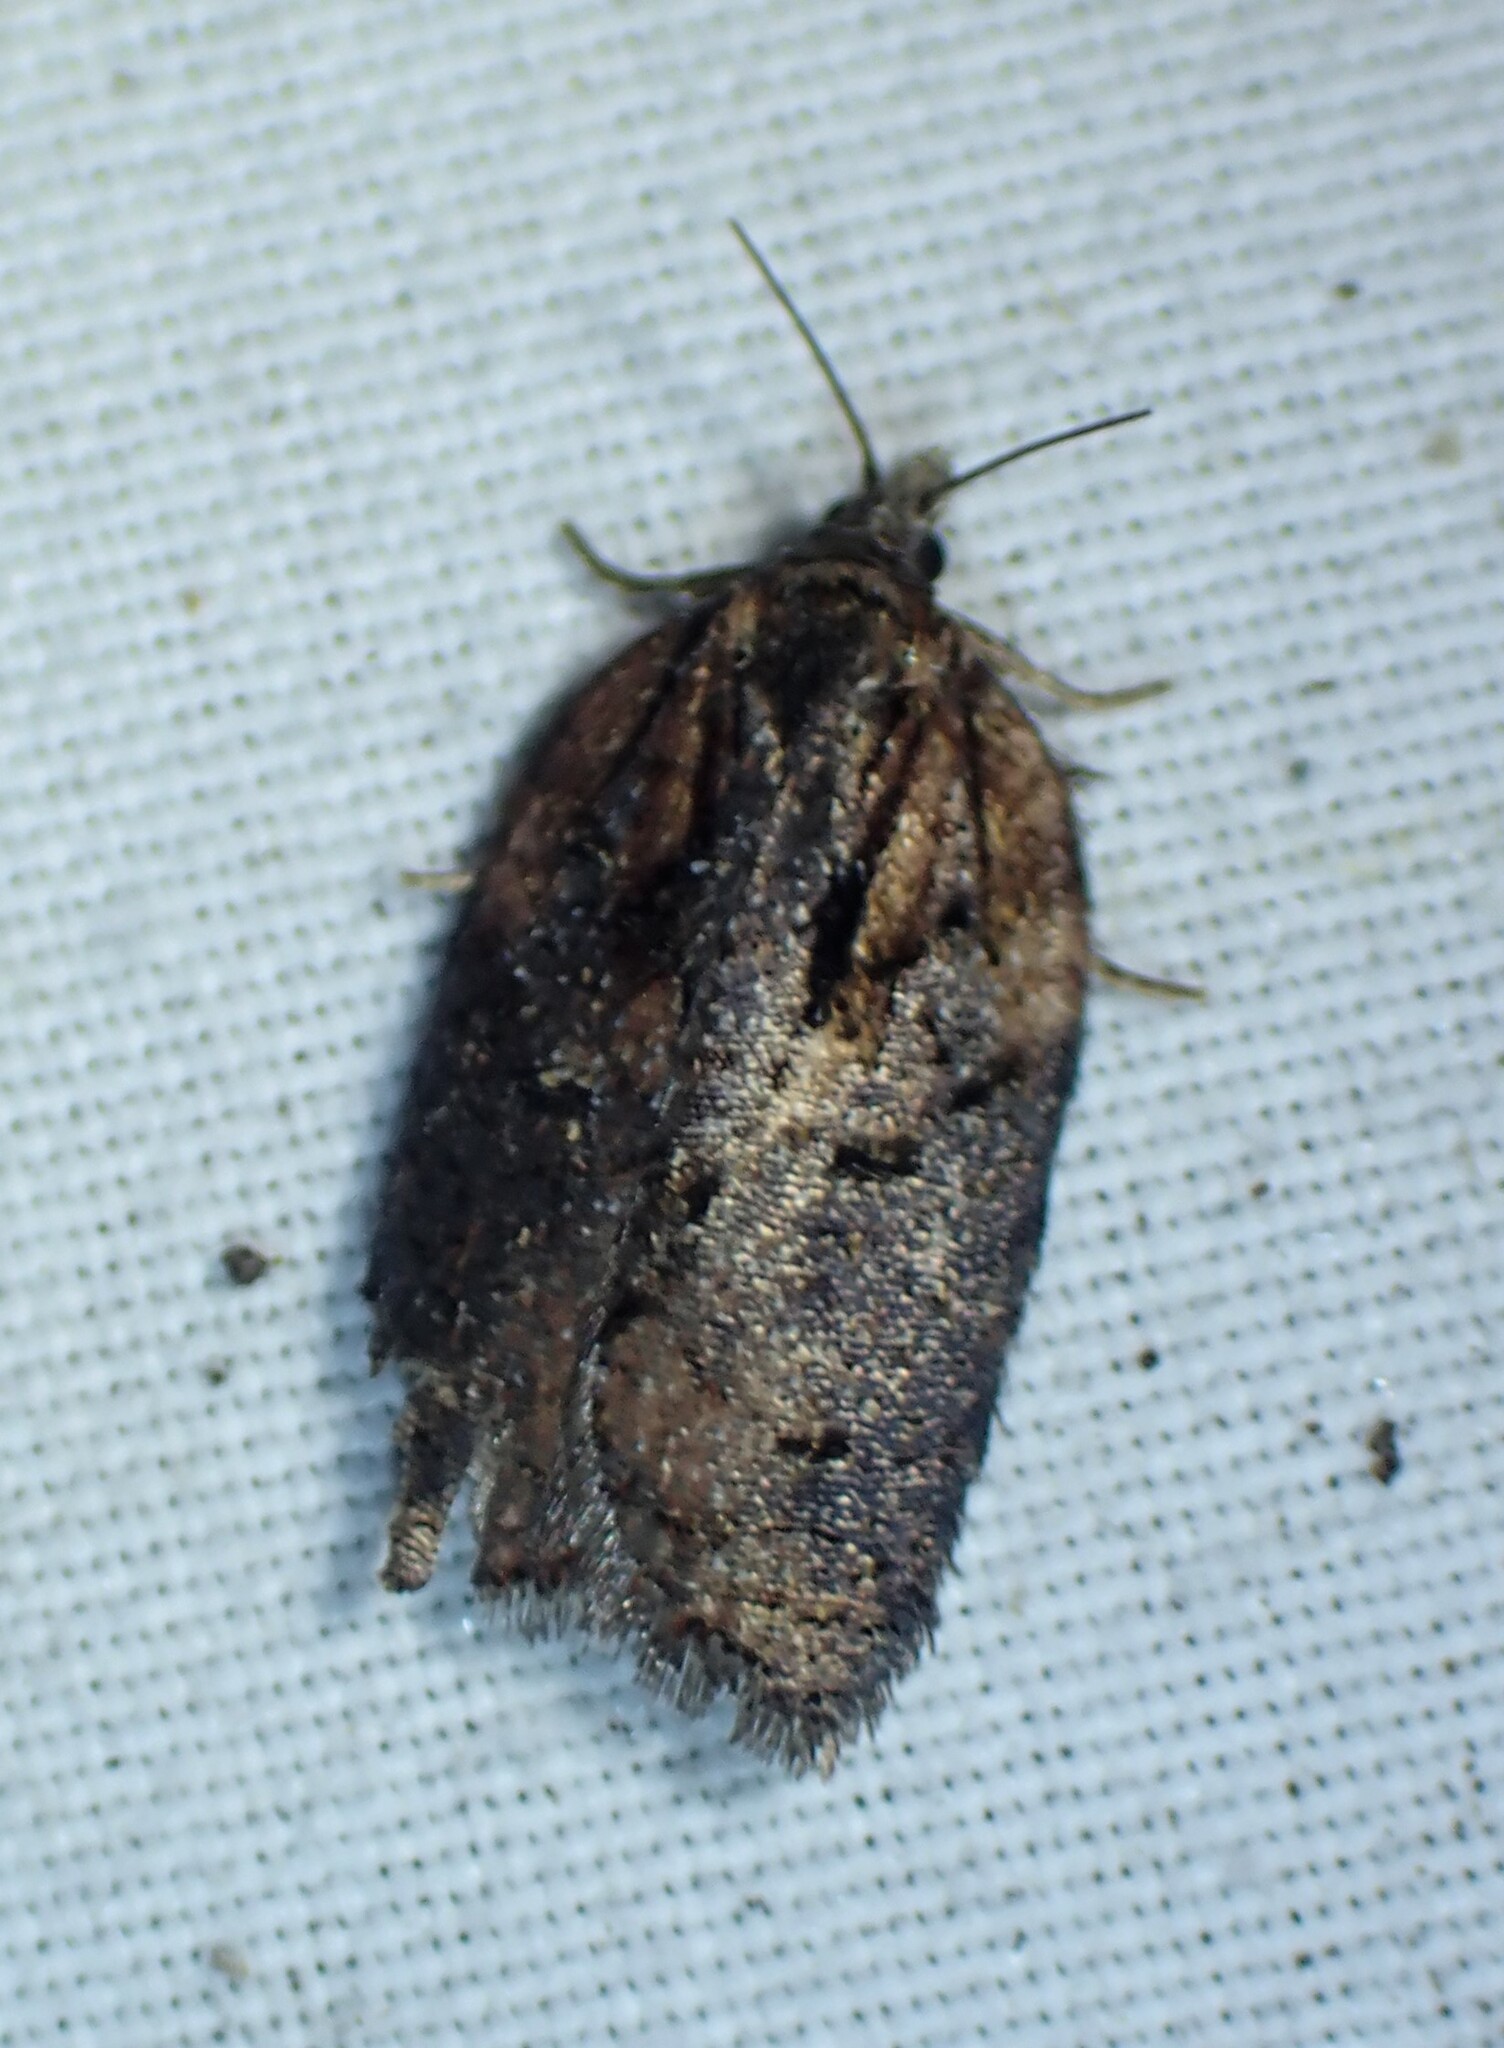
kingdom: Animalia
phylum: Arthropoda
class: Insecta
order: Lepidoptera
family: Tortricidae
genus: Acleris
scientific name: Acleris flavivittana
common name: Multiform leafroller moth
